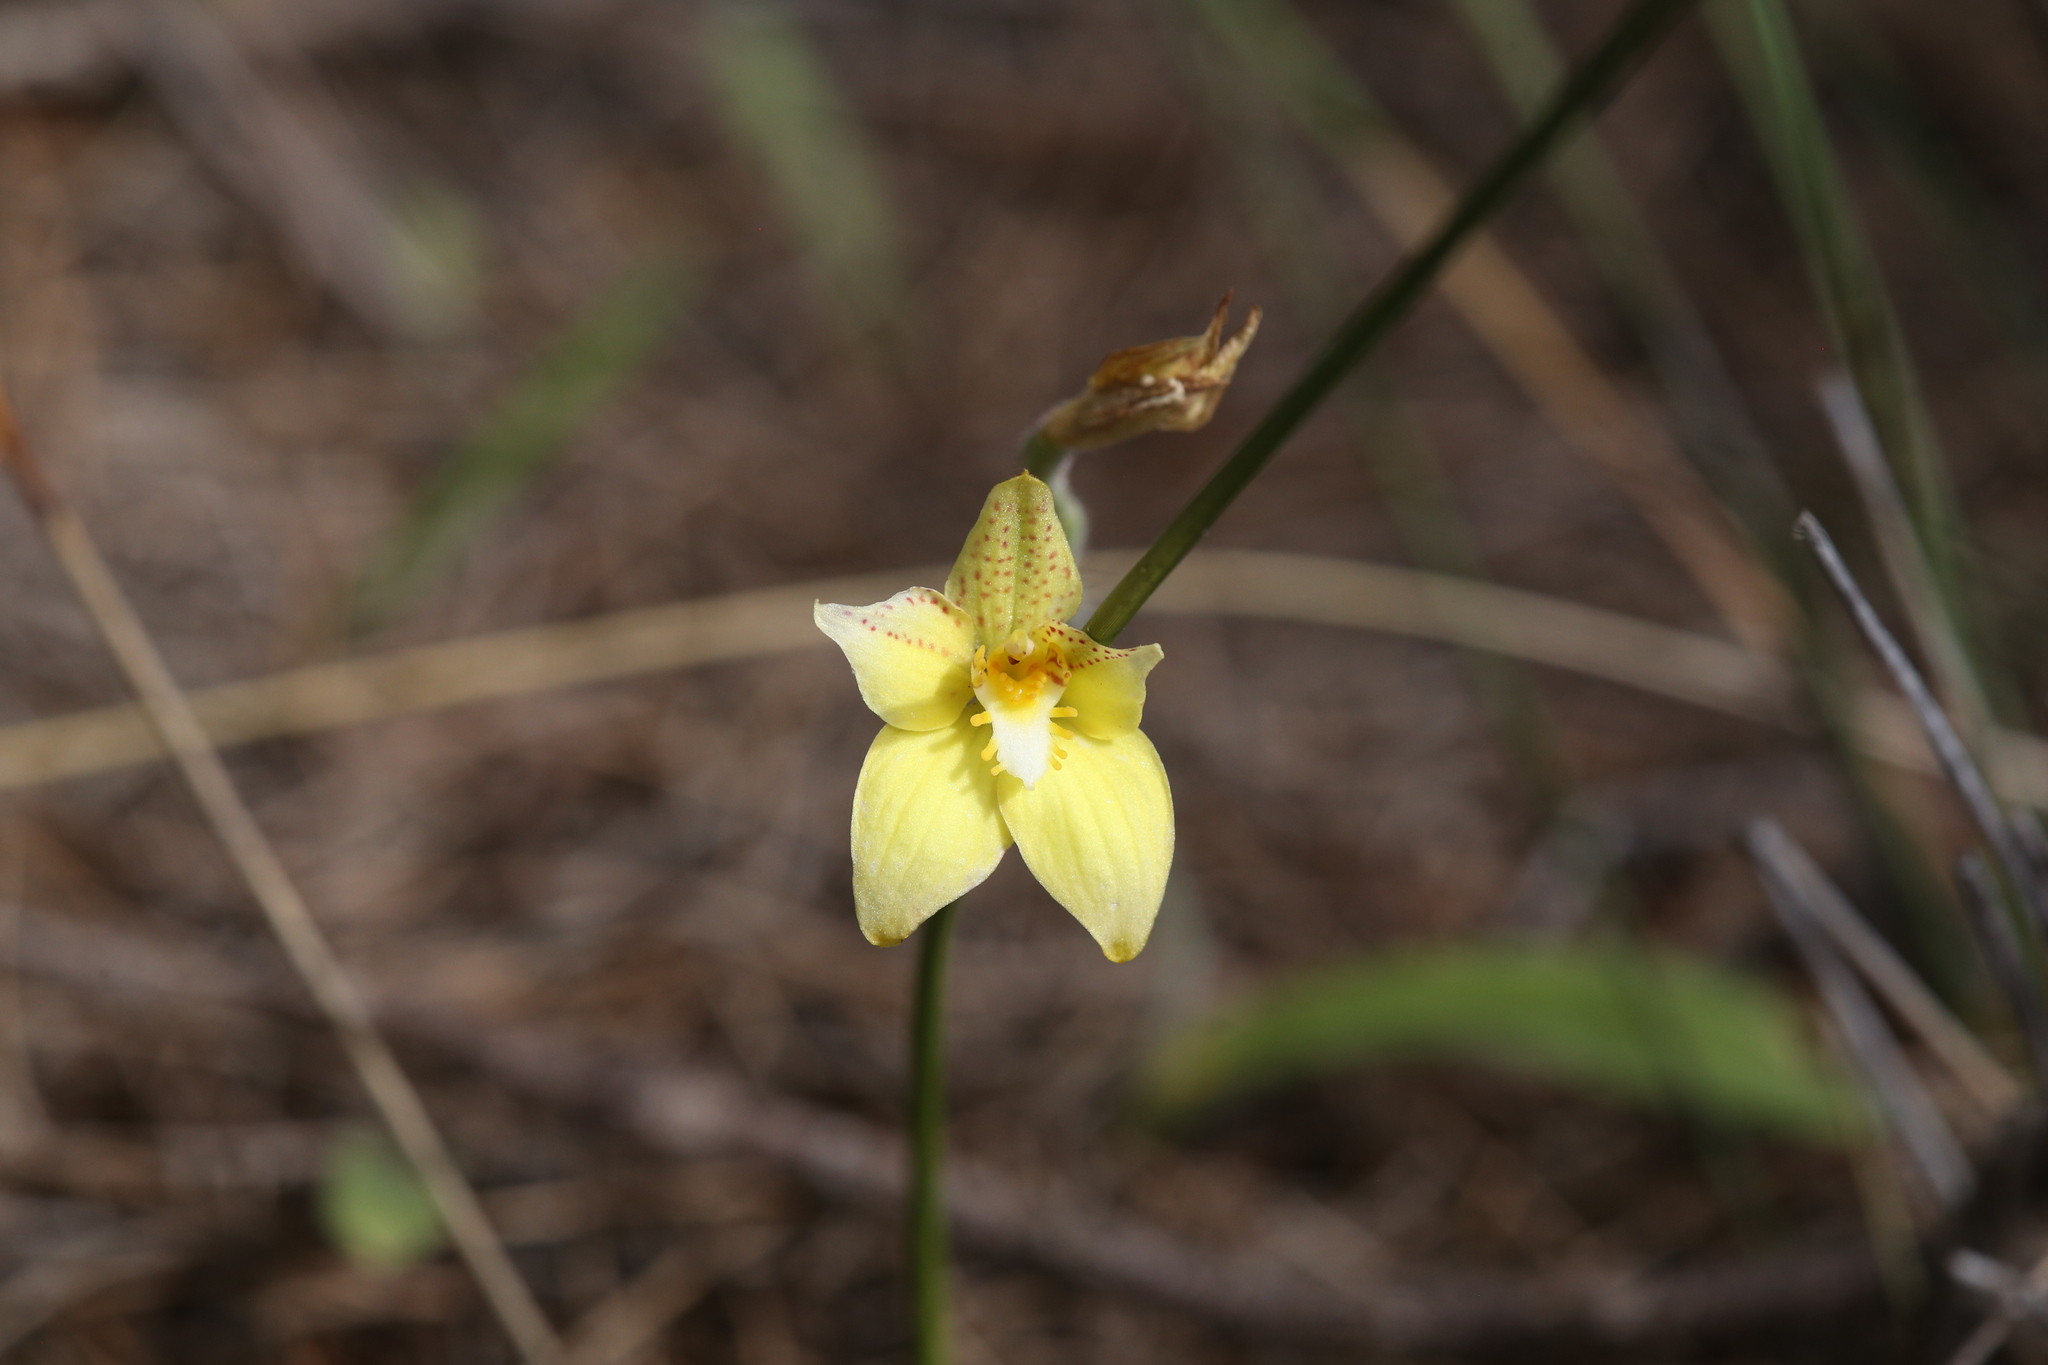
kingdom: Plantae
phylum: Tracheophyta
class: Liliopsida
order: Asparagales
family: Orchidaceae
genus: Caladenia
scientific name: Caladenia flava
